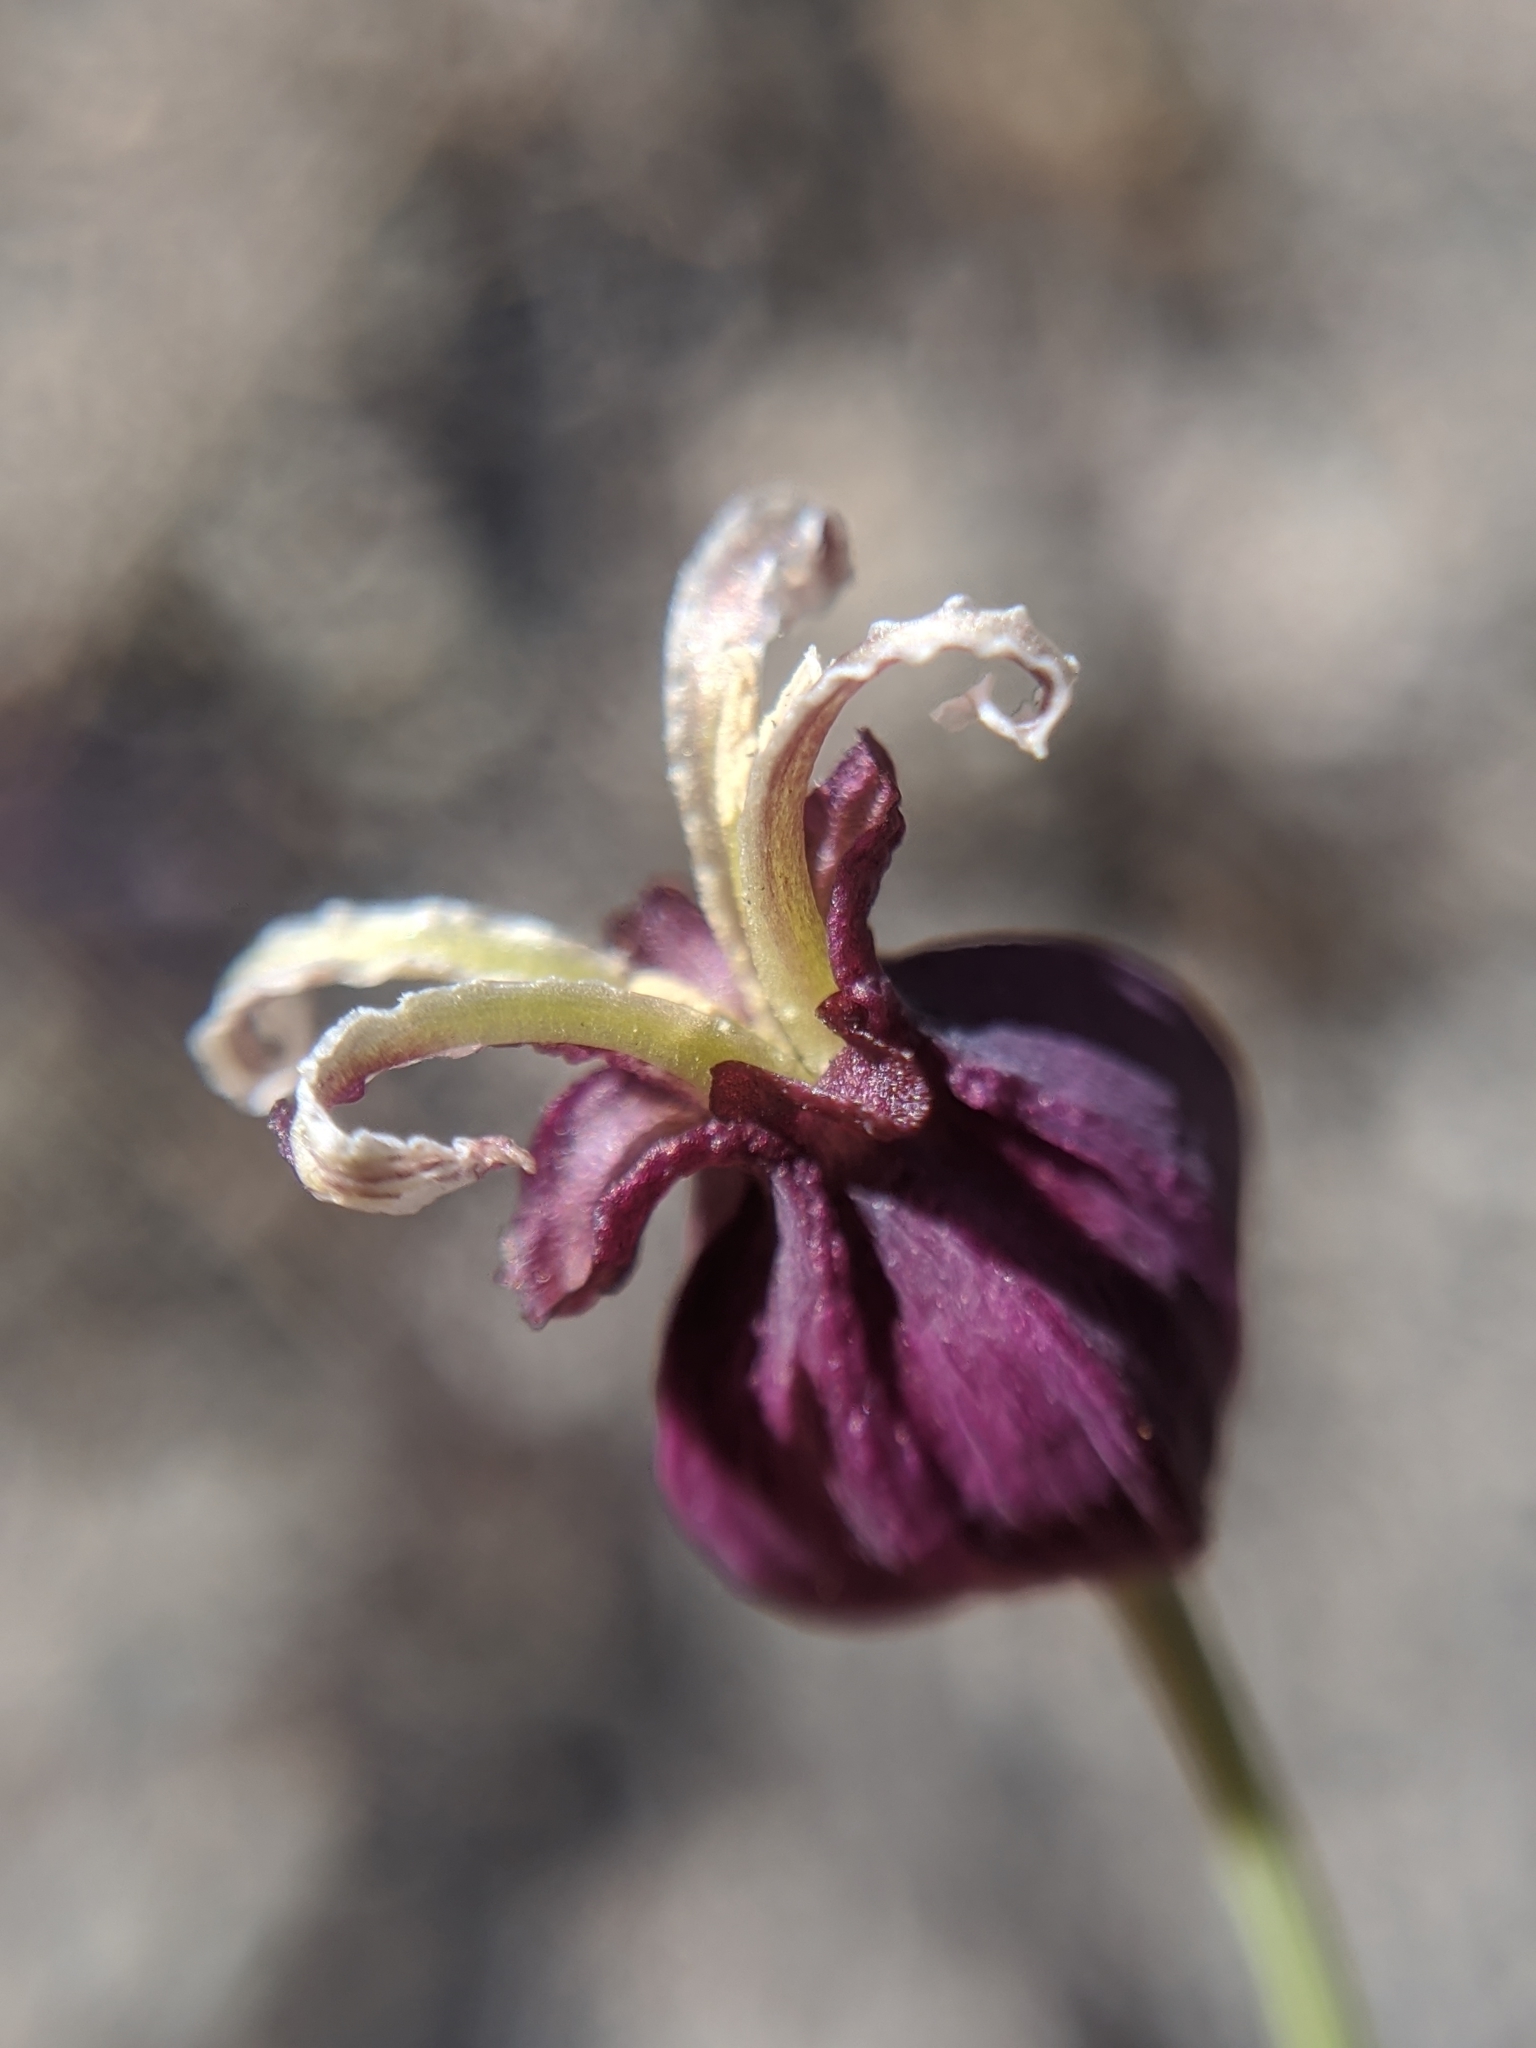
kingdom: Plantae
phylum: Tracheophyta
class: Magnoliopsida
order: Brassicales
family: Brassicaceae
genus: Streptanthus
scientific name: Streptanthus amplexicaulis
